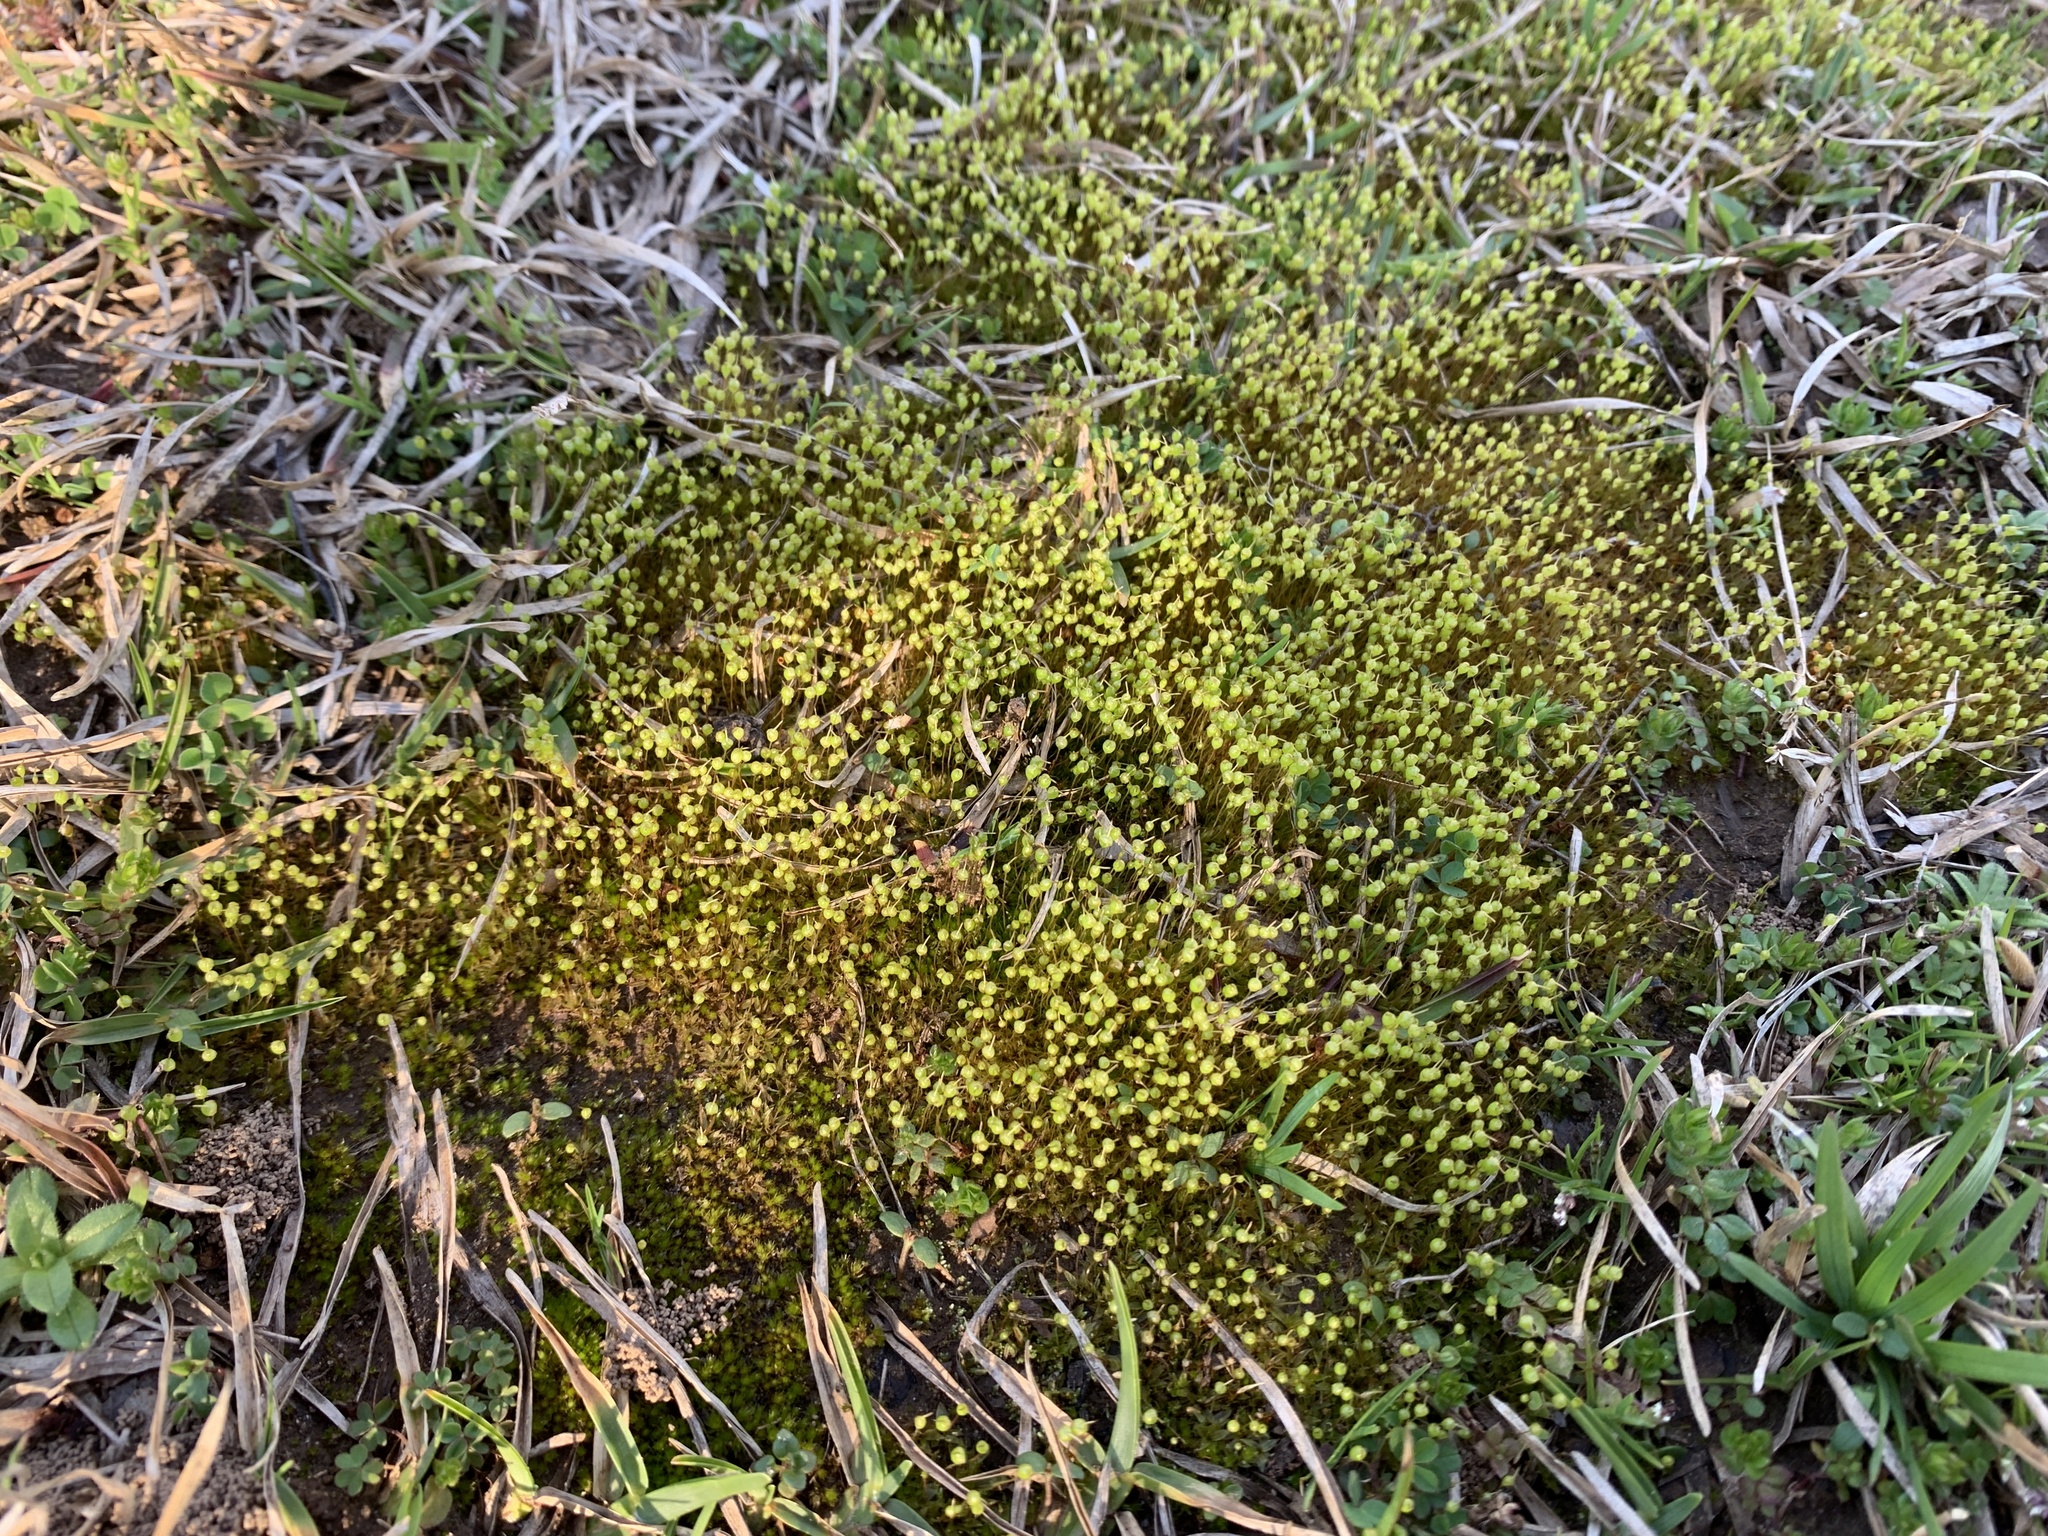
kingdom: Plantae
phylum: Bryophyta
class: Bryopsida
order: Funariales
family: Funariaceae
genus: Physcomitrium
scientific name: Physcomitrium pyriforme
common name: Common bladder-moss
